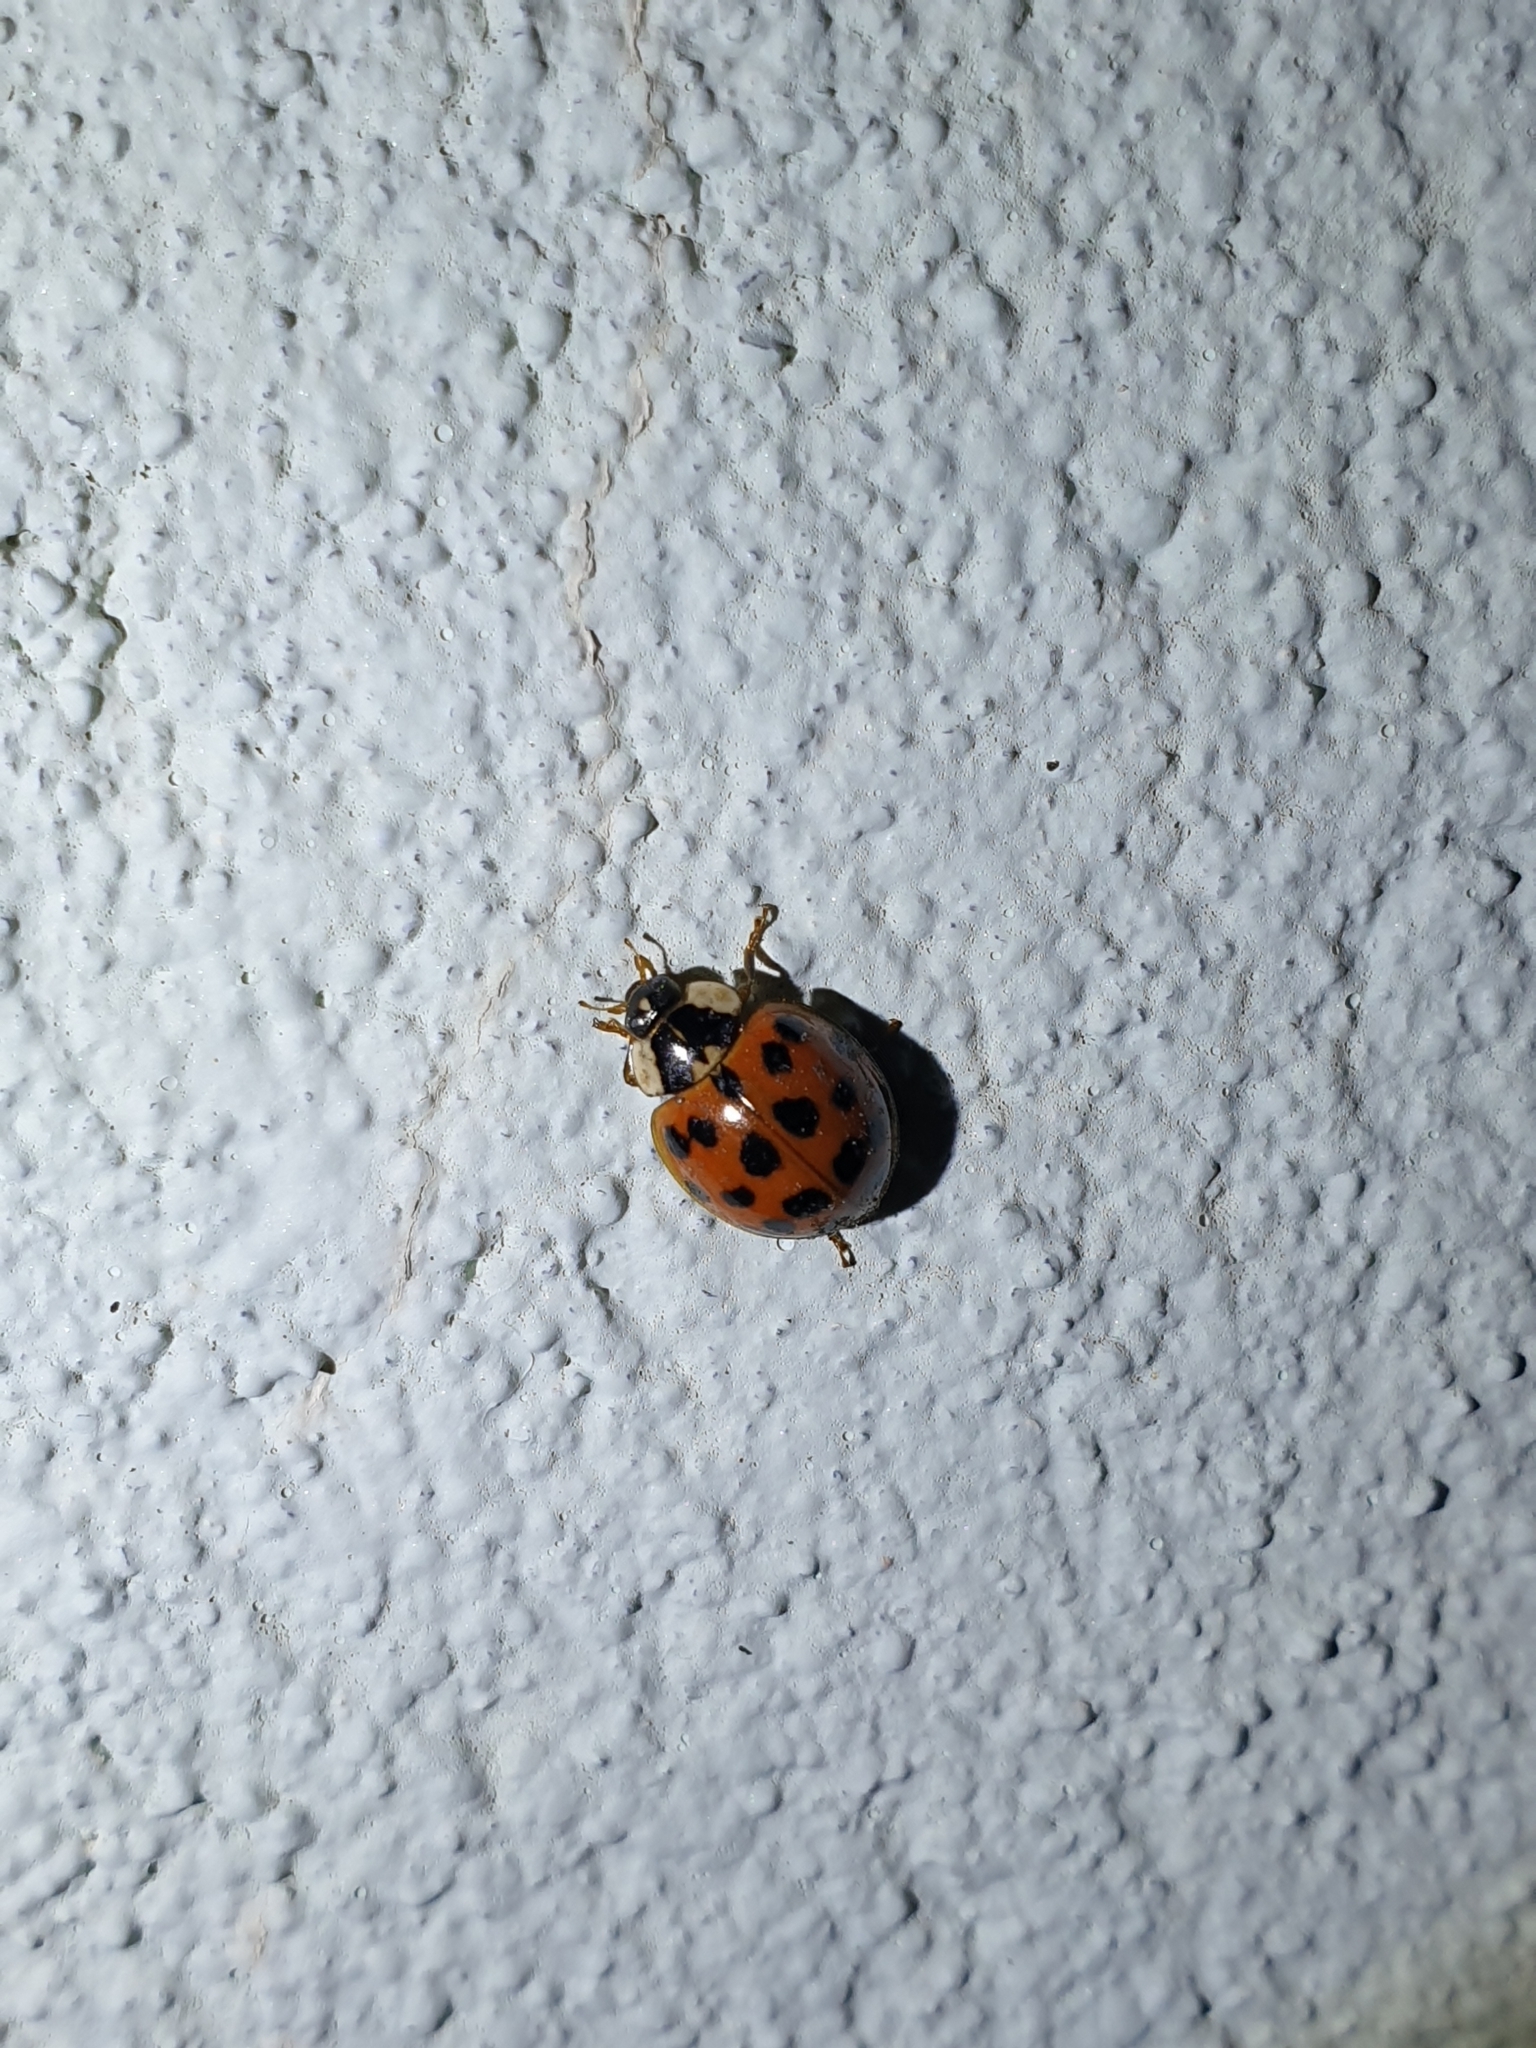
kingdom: Animalia
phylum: Arthropoda
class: Insecta
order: Coleoptera
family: Coccinellidae
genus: Harmonia
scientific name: Harmonia axyridis
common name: Harlequin ladybird
